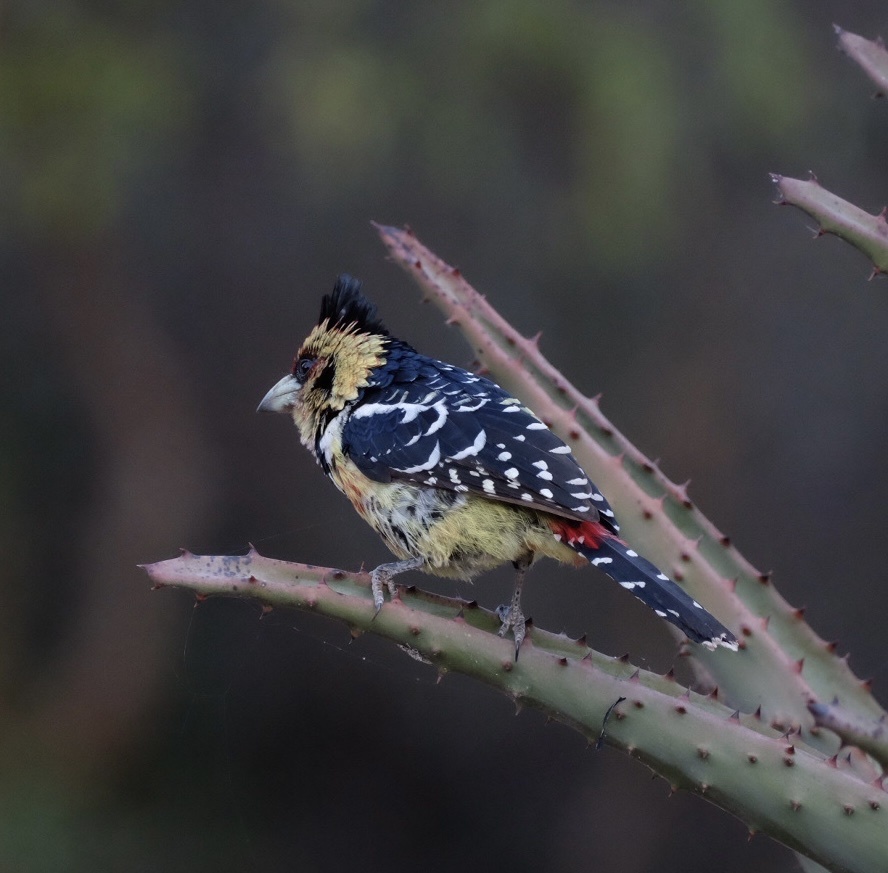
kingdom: Animalia
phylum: Chordata
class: Aves
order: Piciformes
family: Lybiidae
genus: Trachyphonus
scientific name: Trachyphonus vaillantii
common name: Crested barbet
